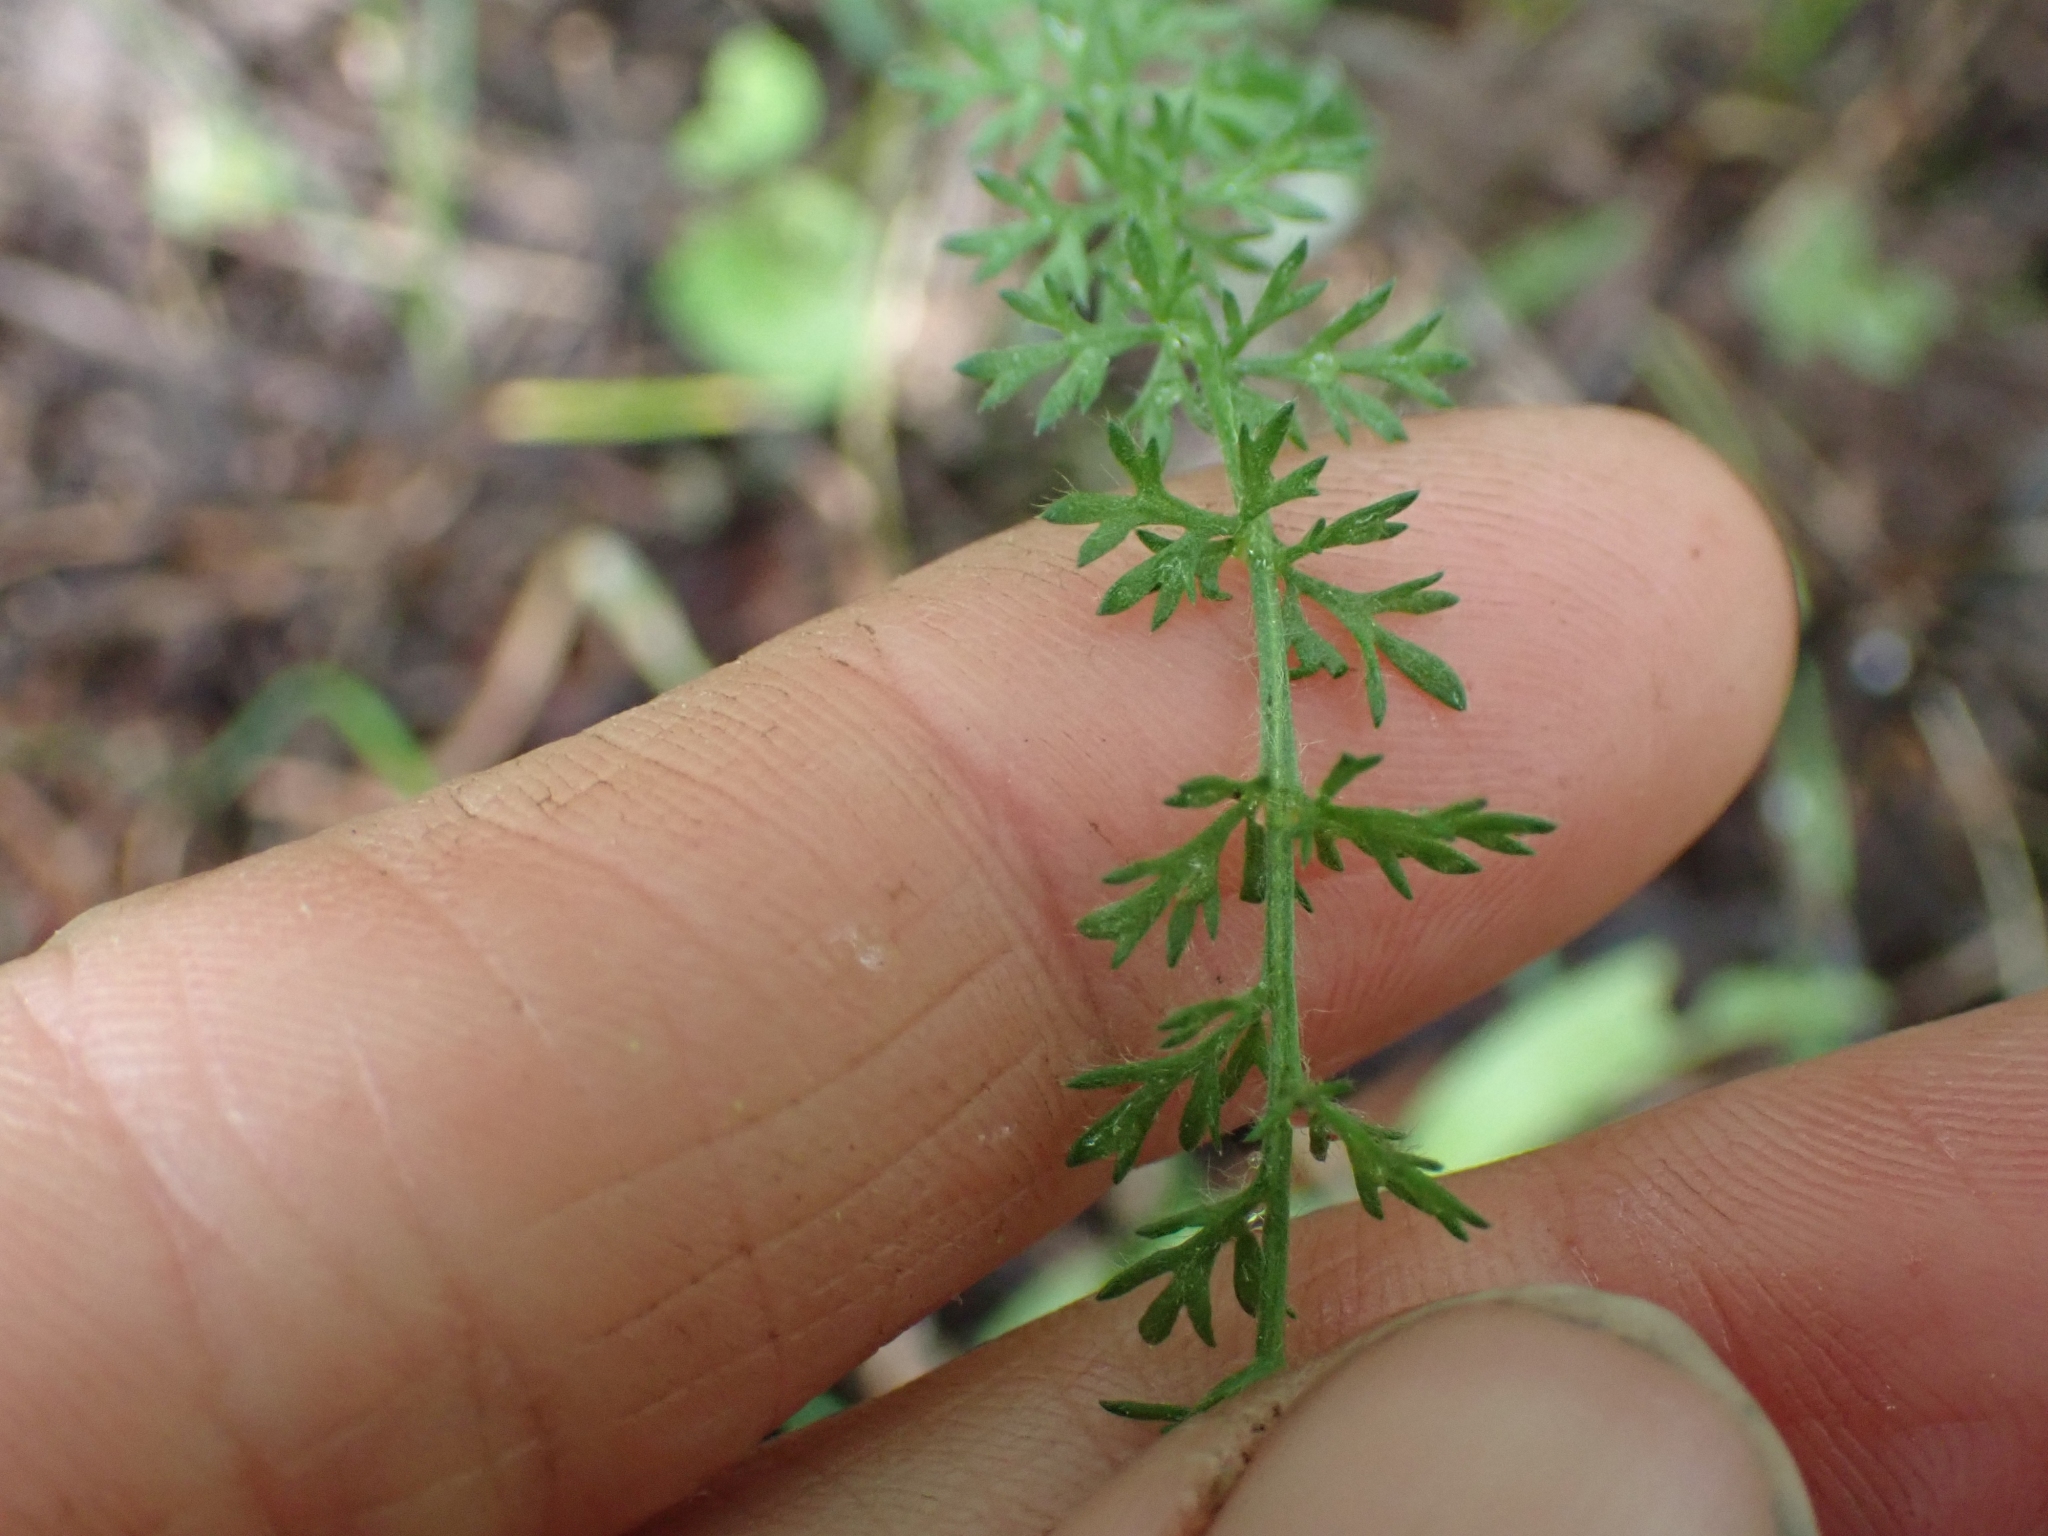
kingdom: Plantae
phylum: Tracheophyta
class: Magnoliopsida
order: Asterales
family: Asteraceae
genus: Achillea
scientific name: Achillea millefolium
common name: Yarrow
